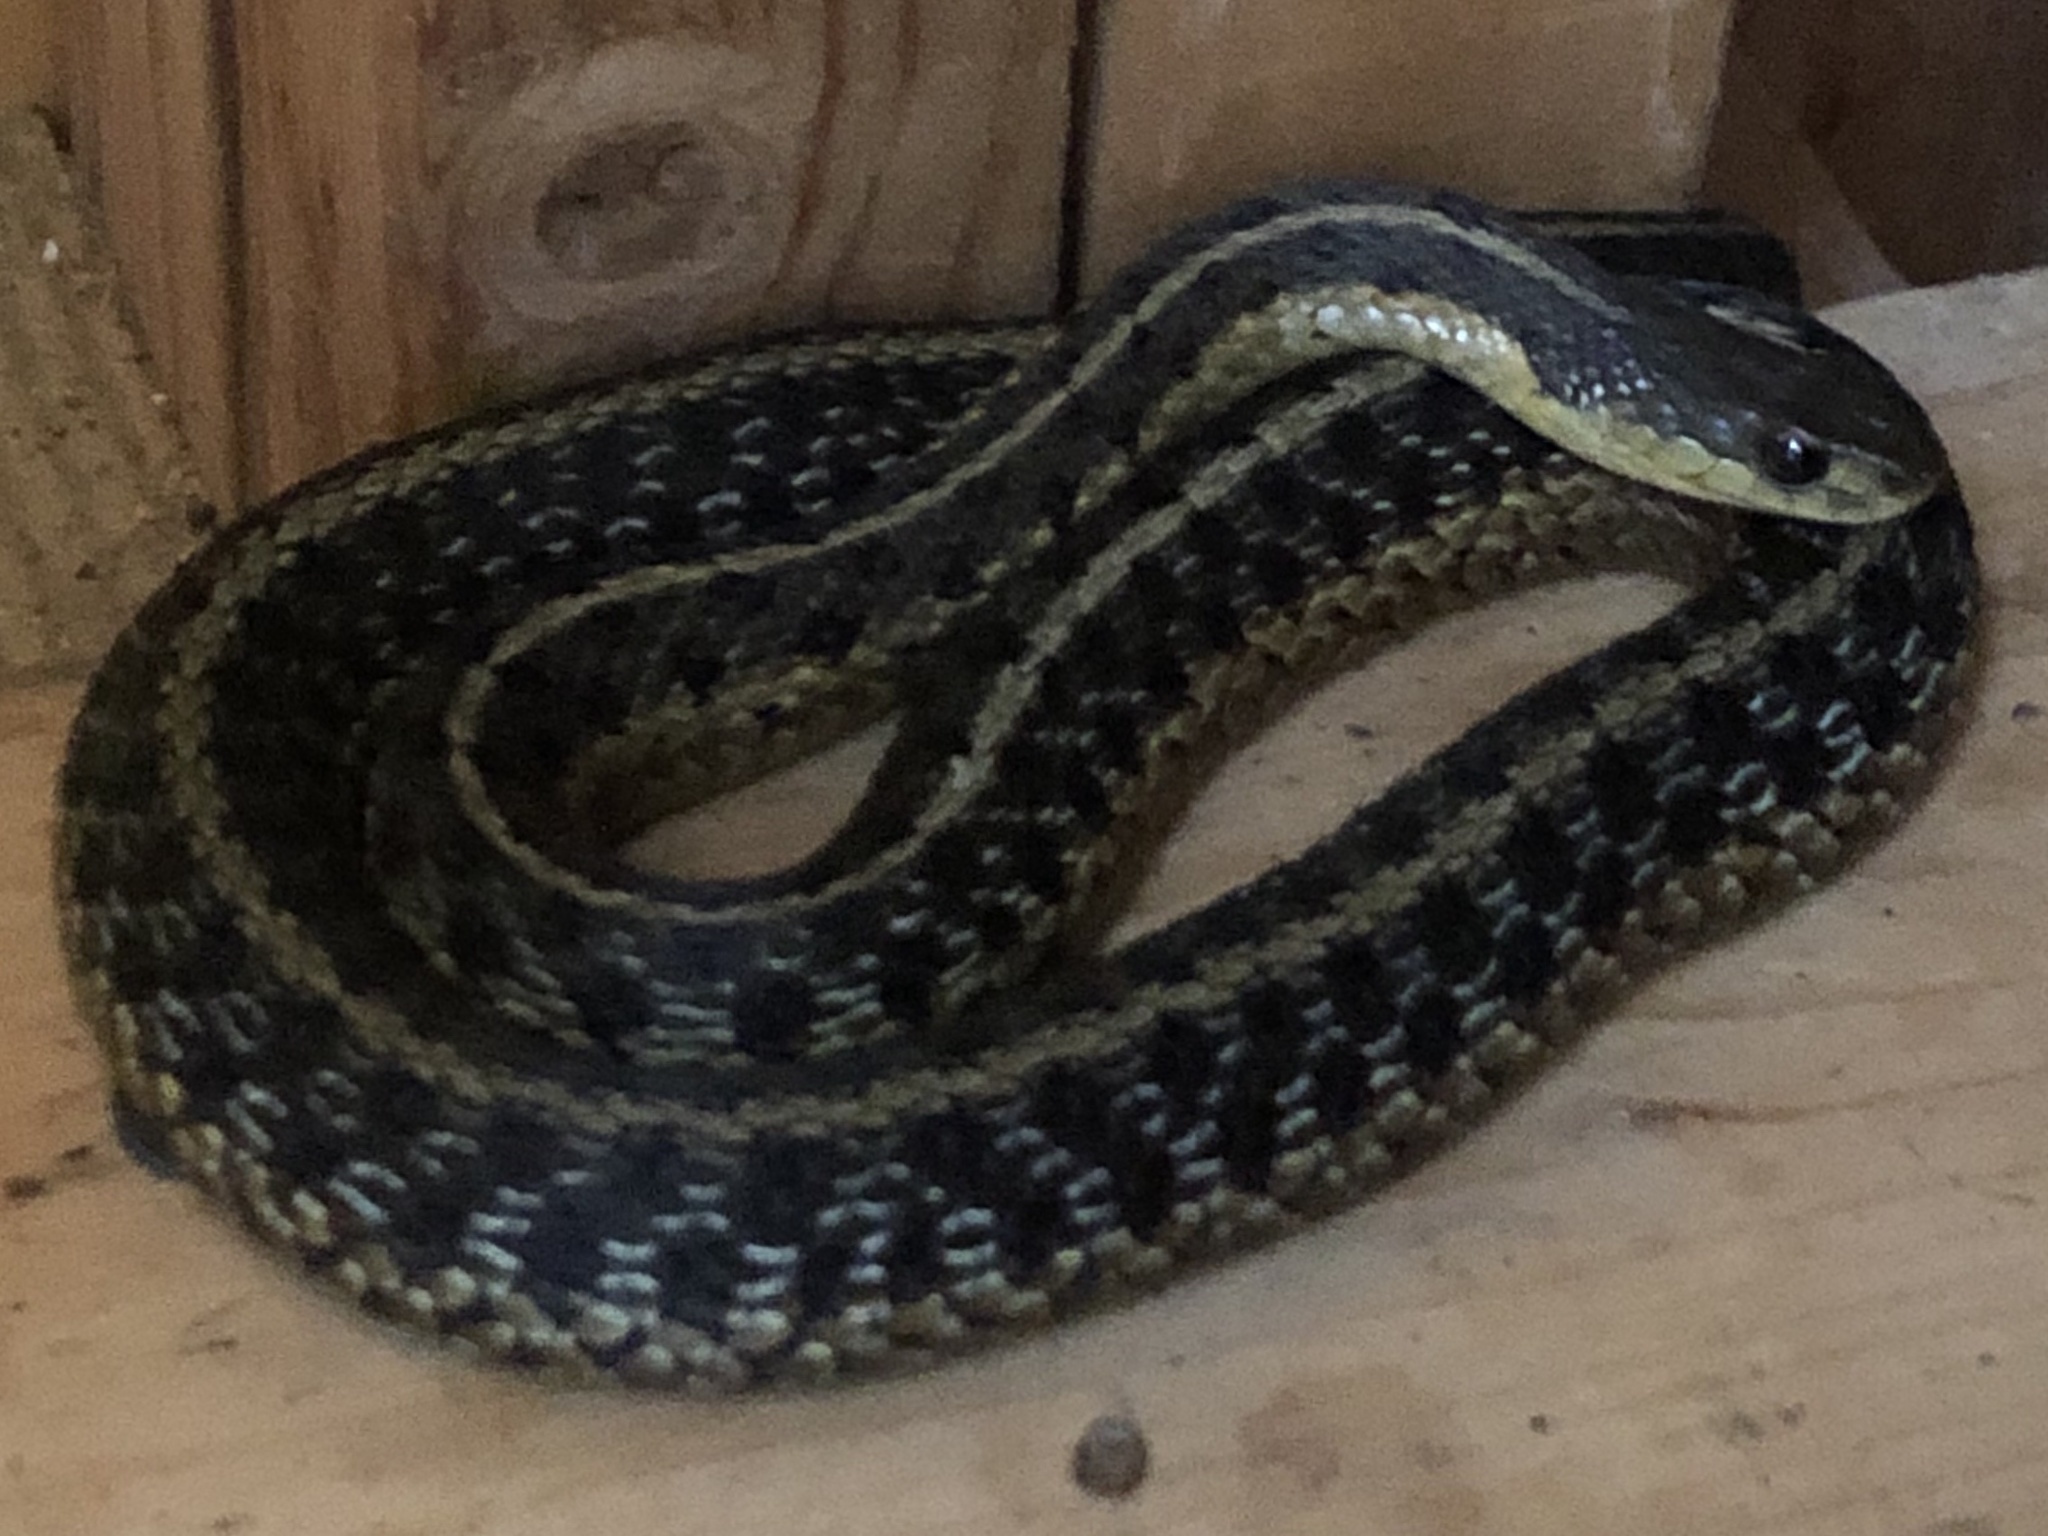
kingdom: Animalia
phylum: Chordata
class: Squamata
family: Colubridae
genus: Thamnophis
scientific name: Thamnophis sirtalis
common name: Common garter snake
